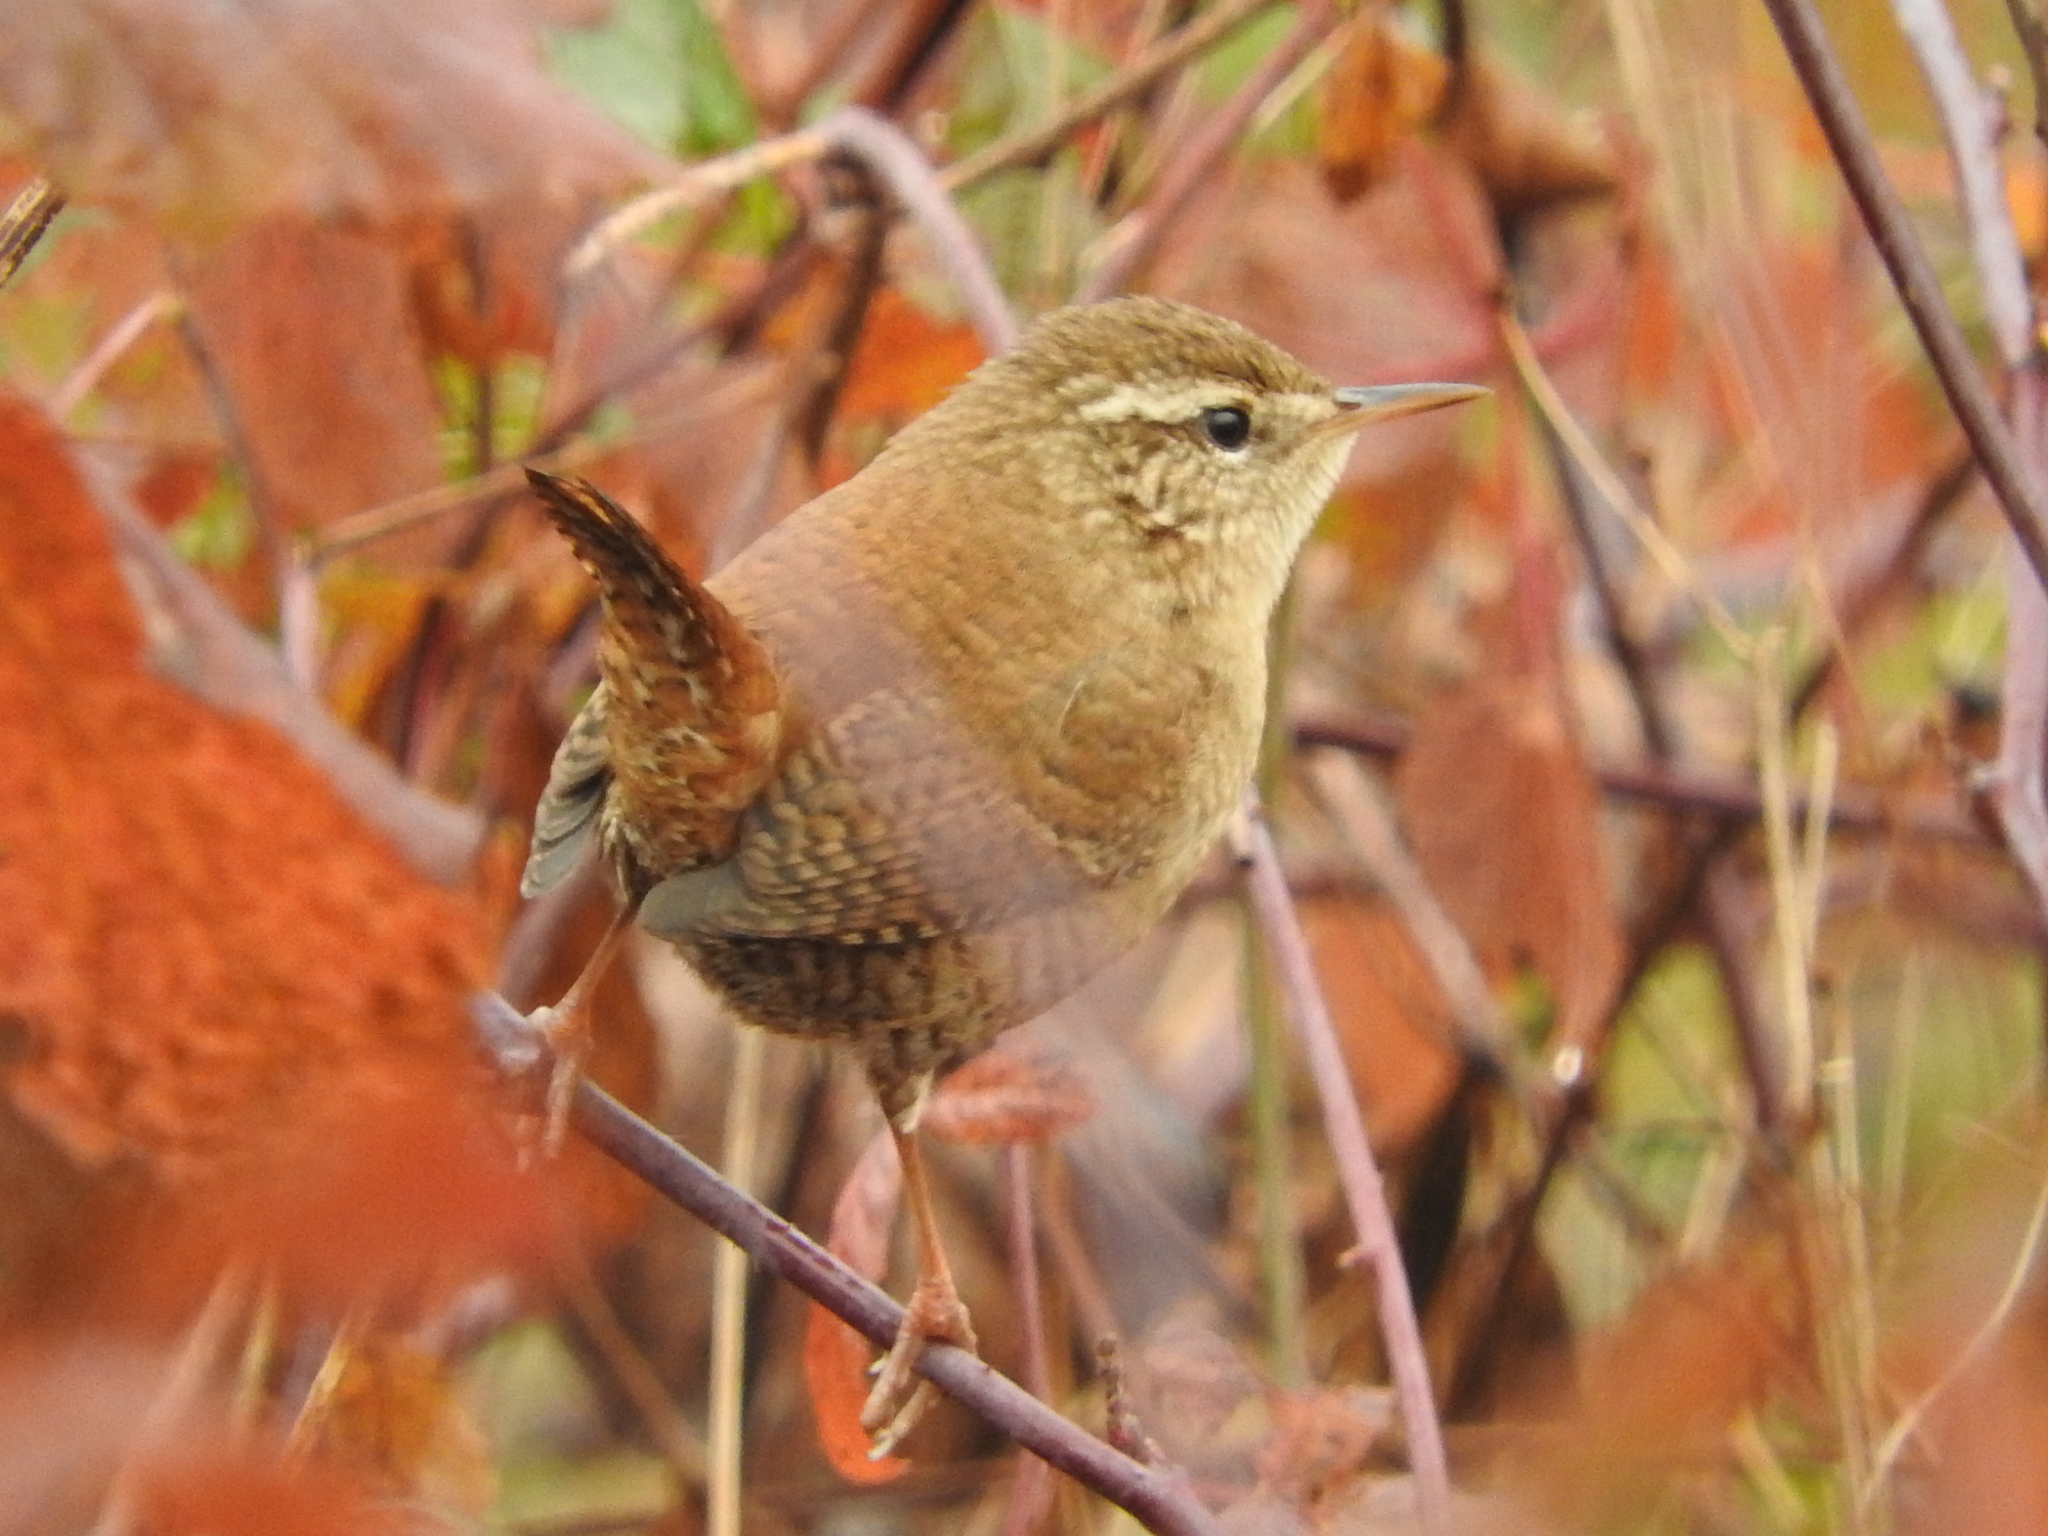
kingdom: Animalia
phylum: Chordata
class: Aves
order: Passeriformes
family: Troglodytidae
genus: Troglodytes
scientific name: Troglodytes troglodytes
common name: Eurasian wren
